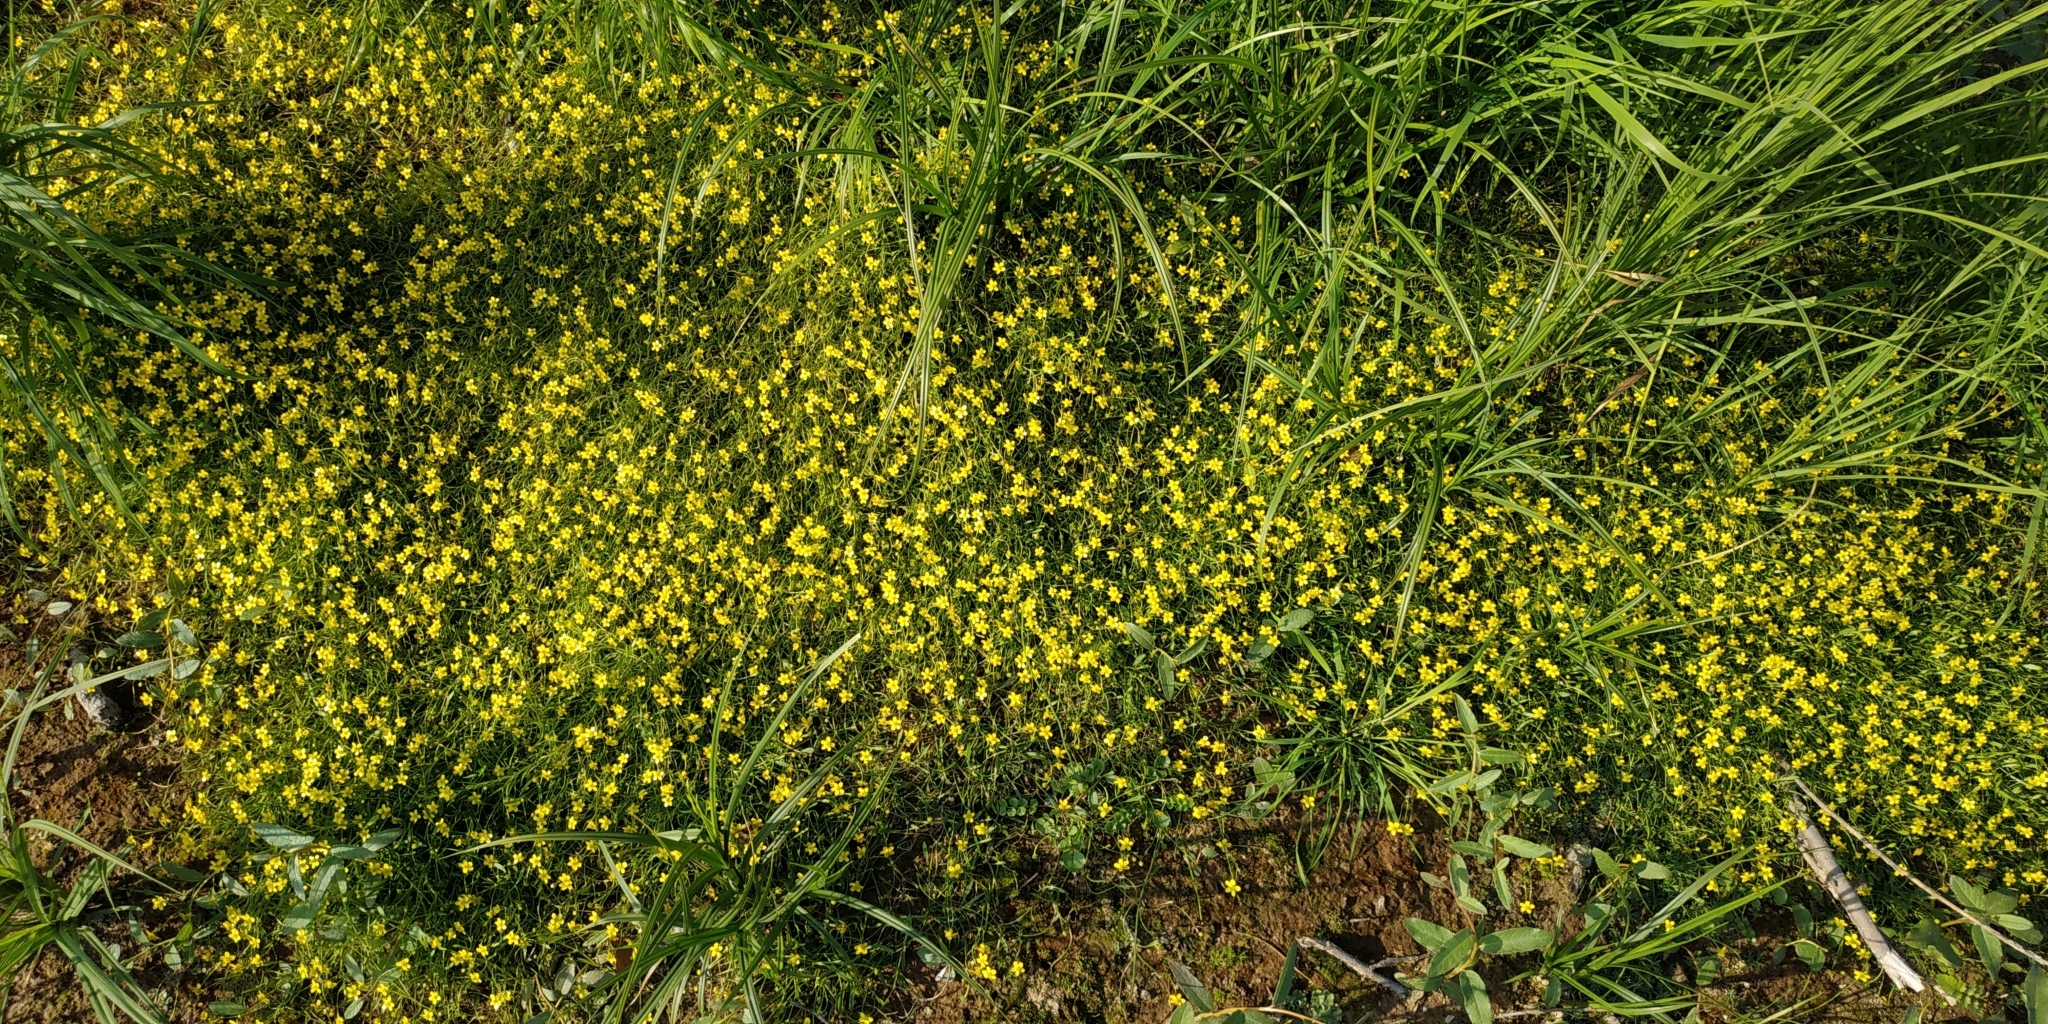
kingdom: Plantae
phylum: Tracheophyta
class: Magnoliopsida
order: Ranunculales
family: Ranunculaceae
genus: Ranunculus
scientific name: Ranunculus reptans
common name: Creeping spearwort
